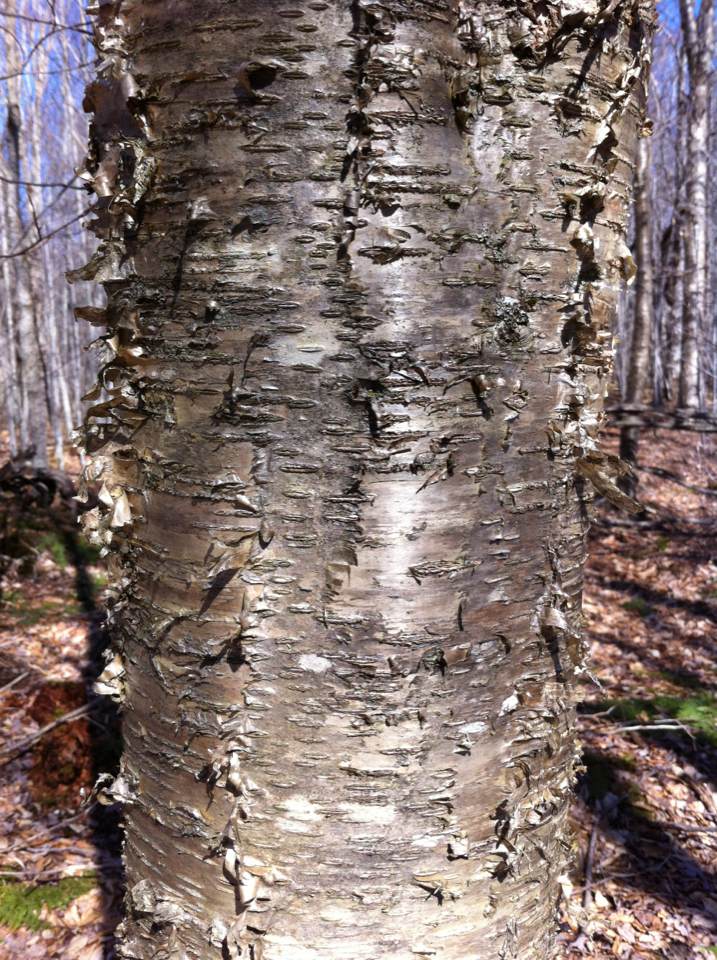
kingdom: Plantae
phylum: Tracheophyta
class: Magnoliopsida
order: Fagales
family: Betulaceae
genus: Betula
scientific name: Betula alleghaniensis
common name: Yellow birch
